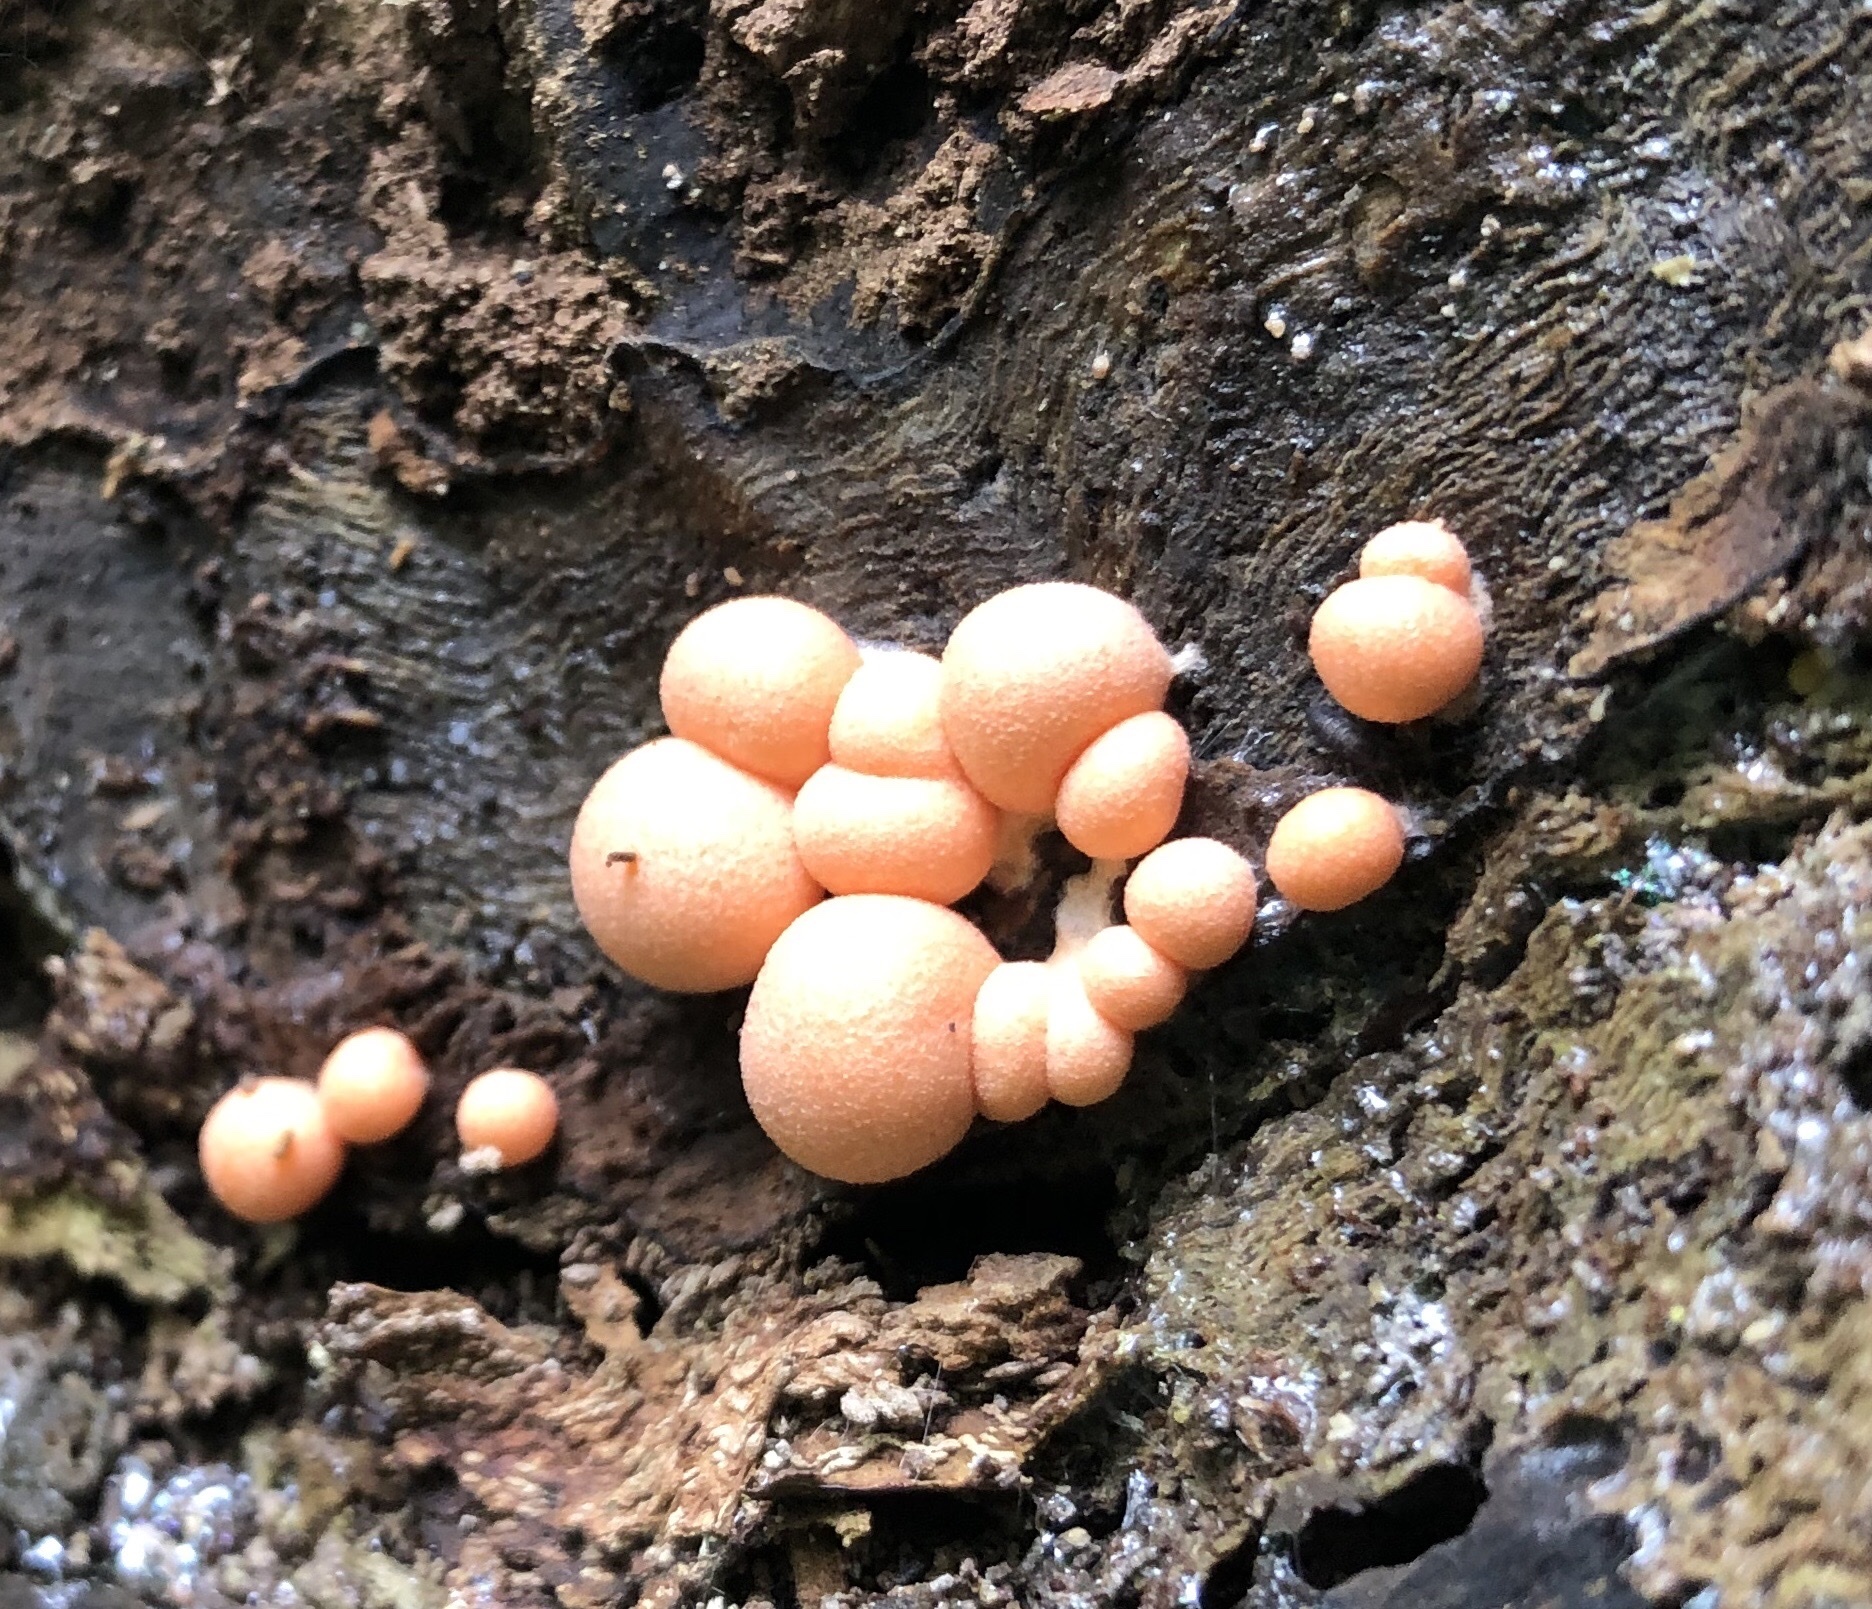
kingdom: Protozoa
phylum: Mycetozoa
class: Myxomycetes
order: Cribrariales
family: Tubiferaceae
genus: Lycogala
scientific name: Lycogala epidendrum
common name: Wolf's milk
